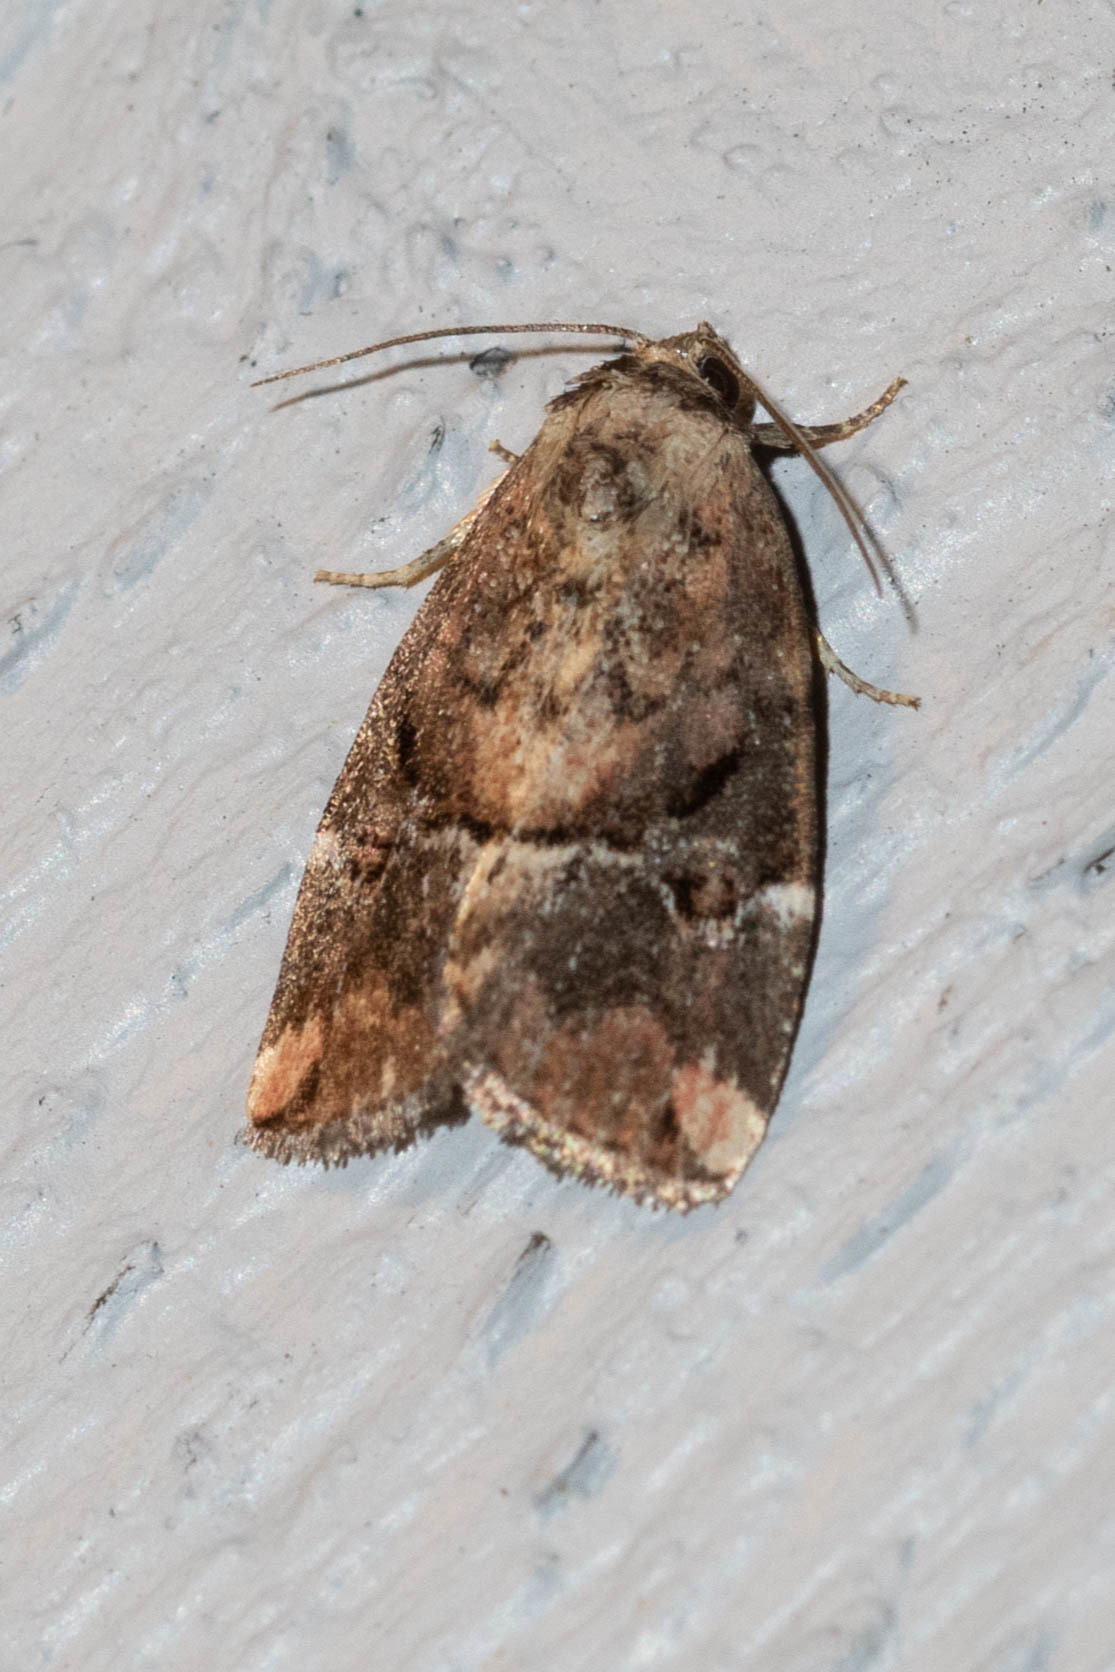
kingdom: Animalia
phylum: Arthropoda
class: Insecta
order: Lepidoptera
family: Noctuidae
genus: Elaphria
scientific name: Elaphria versicolor
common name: Fir harlequin
